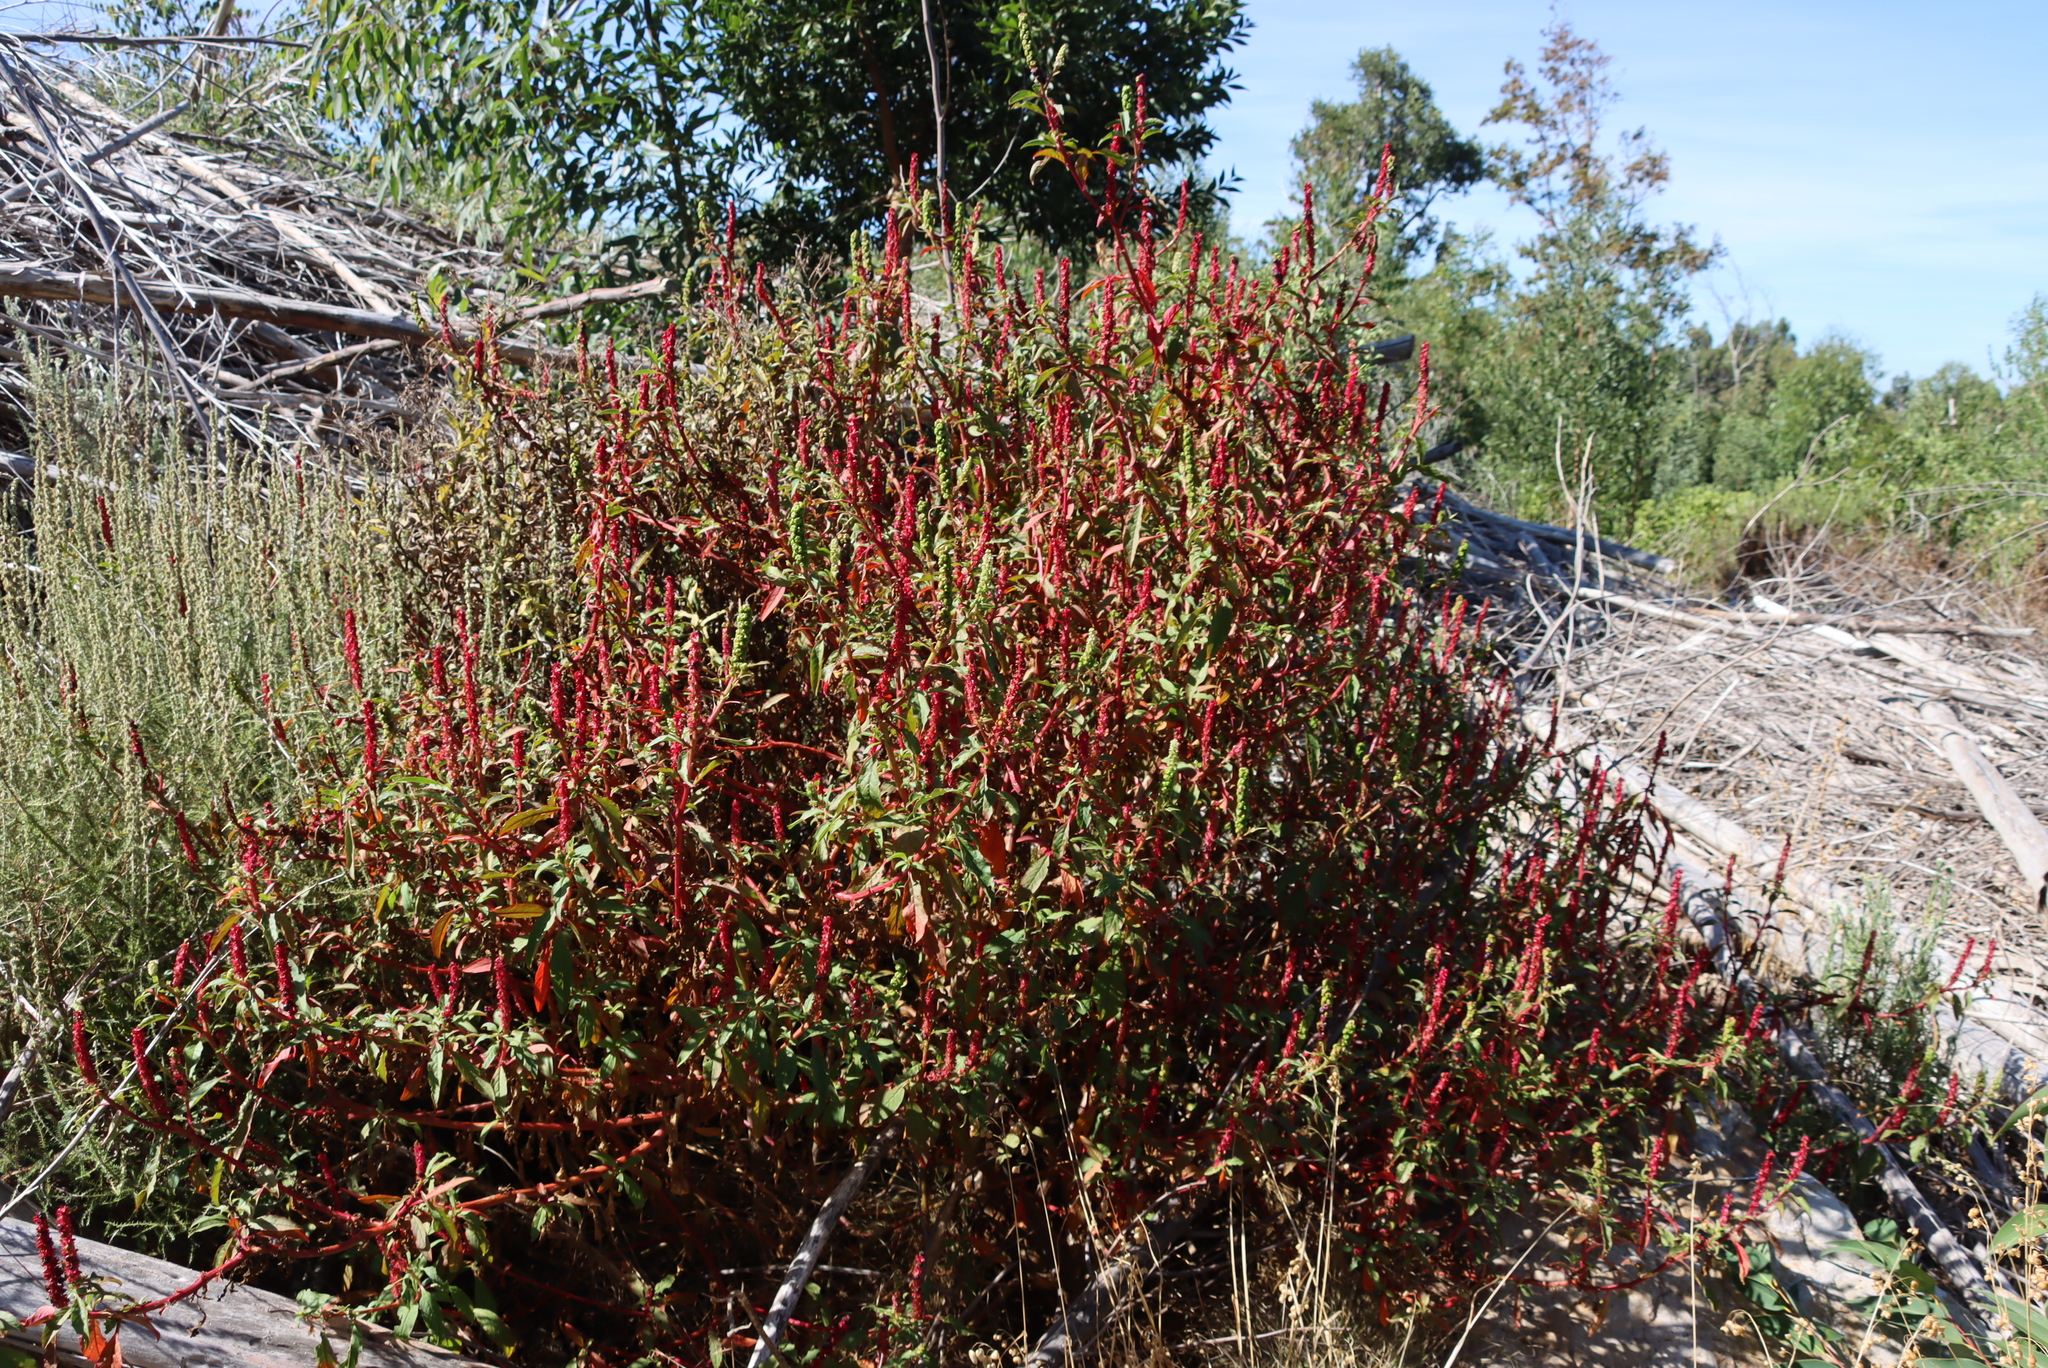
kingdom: Plantae
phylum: Tracheophyta
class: Magnoliopsida
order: Caryophyllales
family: Phytolaccaceae
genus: Phytolacca
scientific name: Phytolacca icosandra
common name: Button pokeweed
